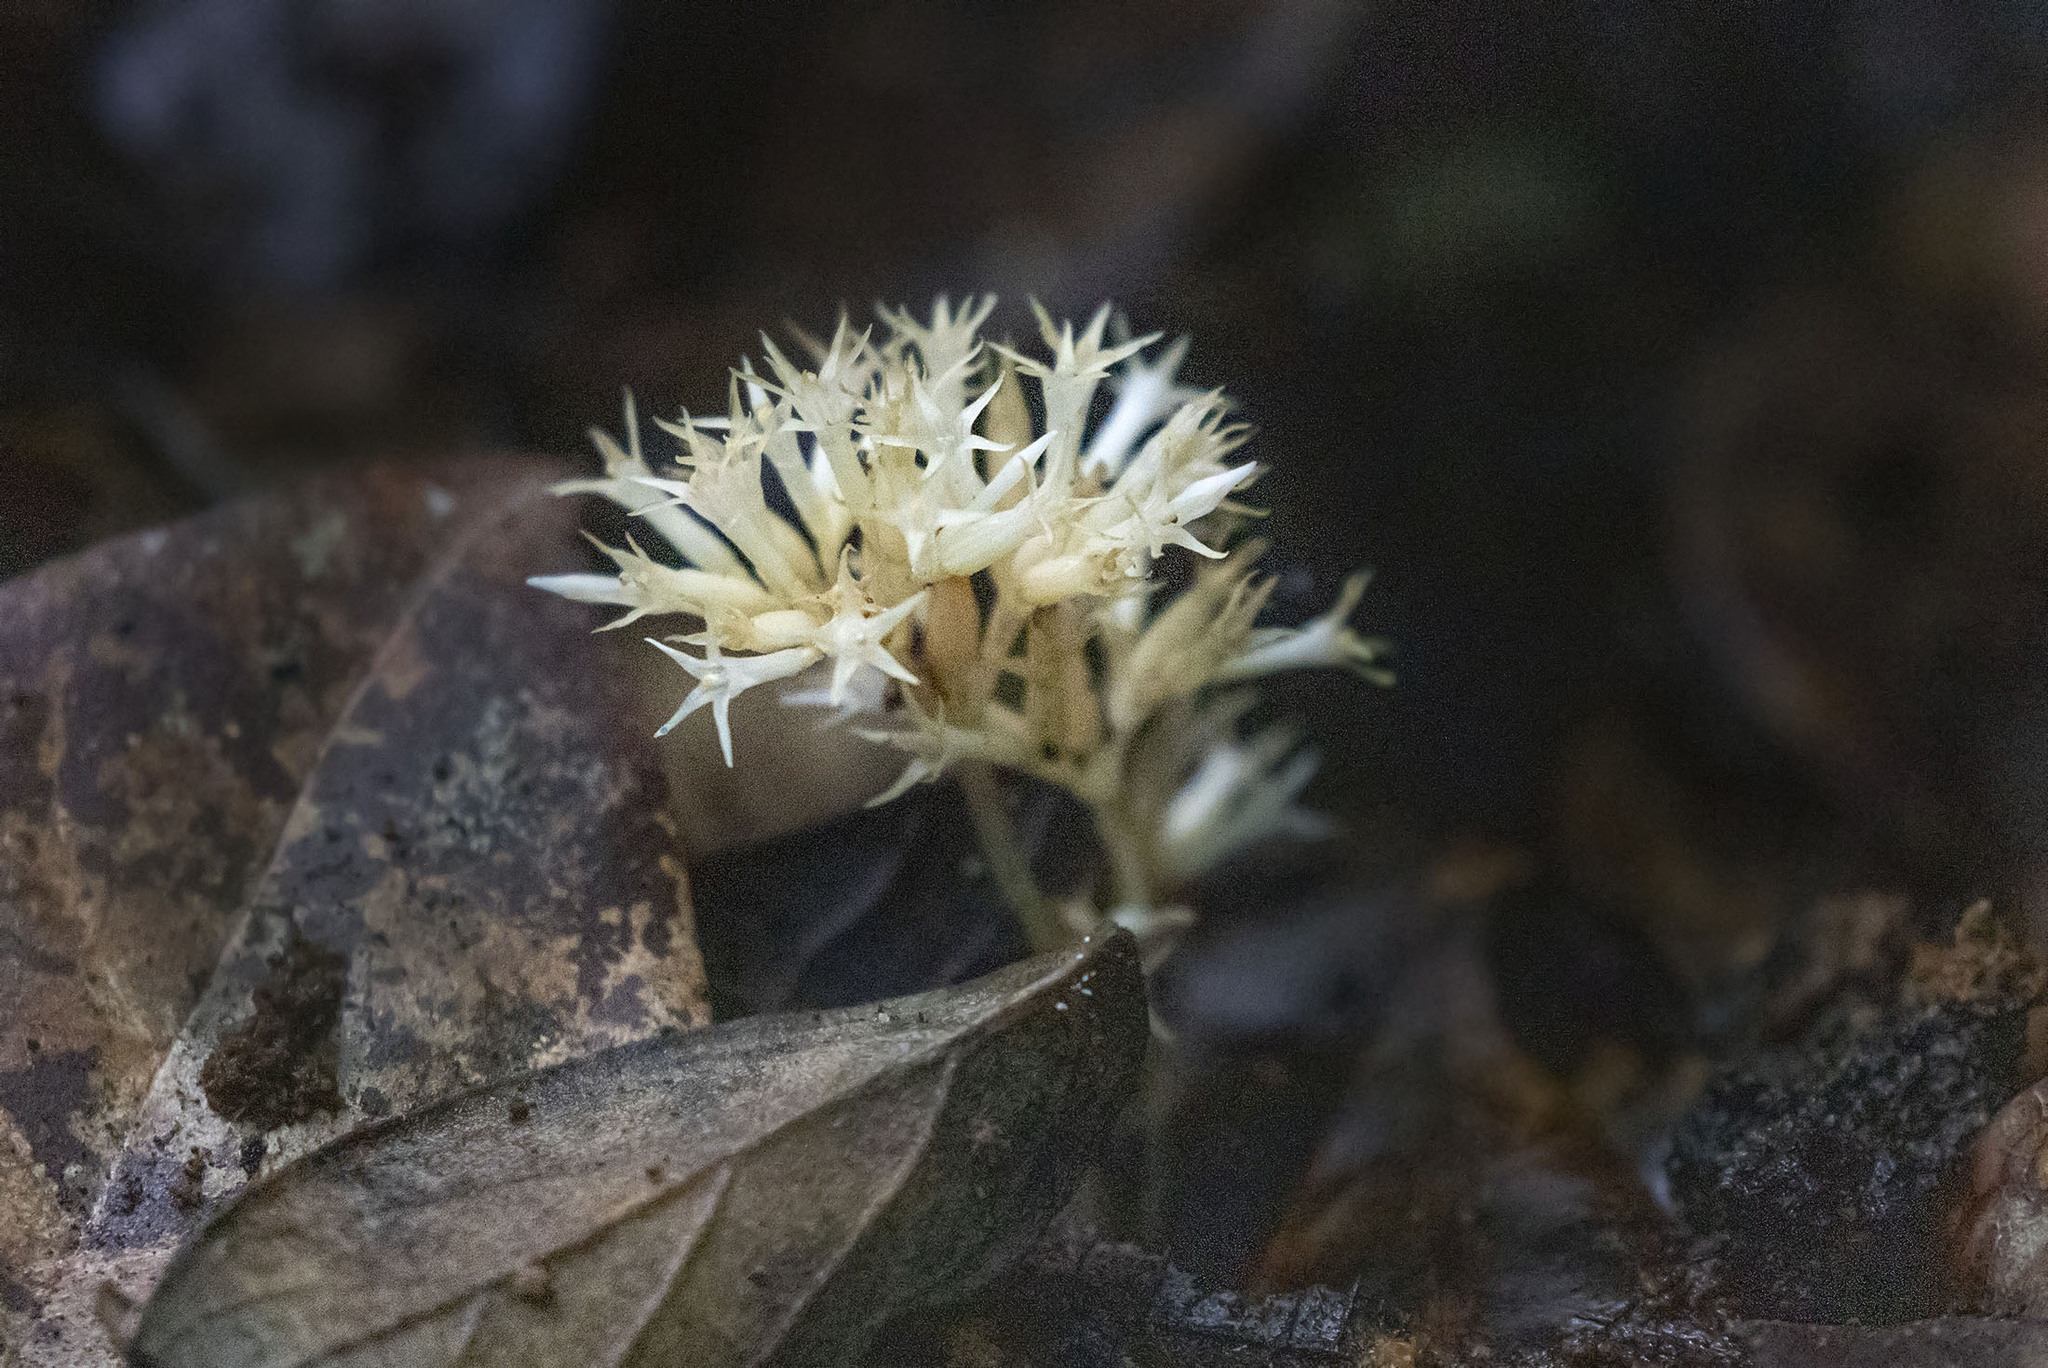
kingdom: Plantae
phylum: Tracheophyta
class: Magnoliopsida
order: Gentianales
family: Gentianaceae
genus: Voyria
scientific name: Voyria alba
